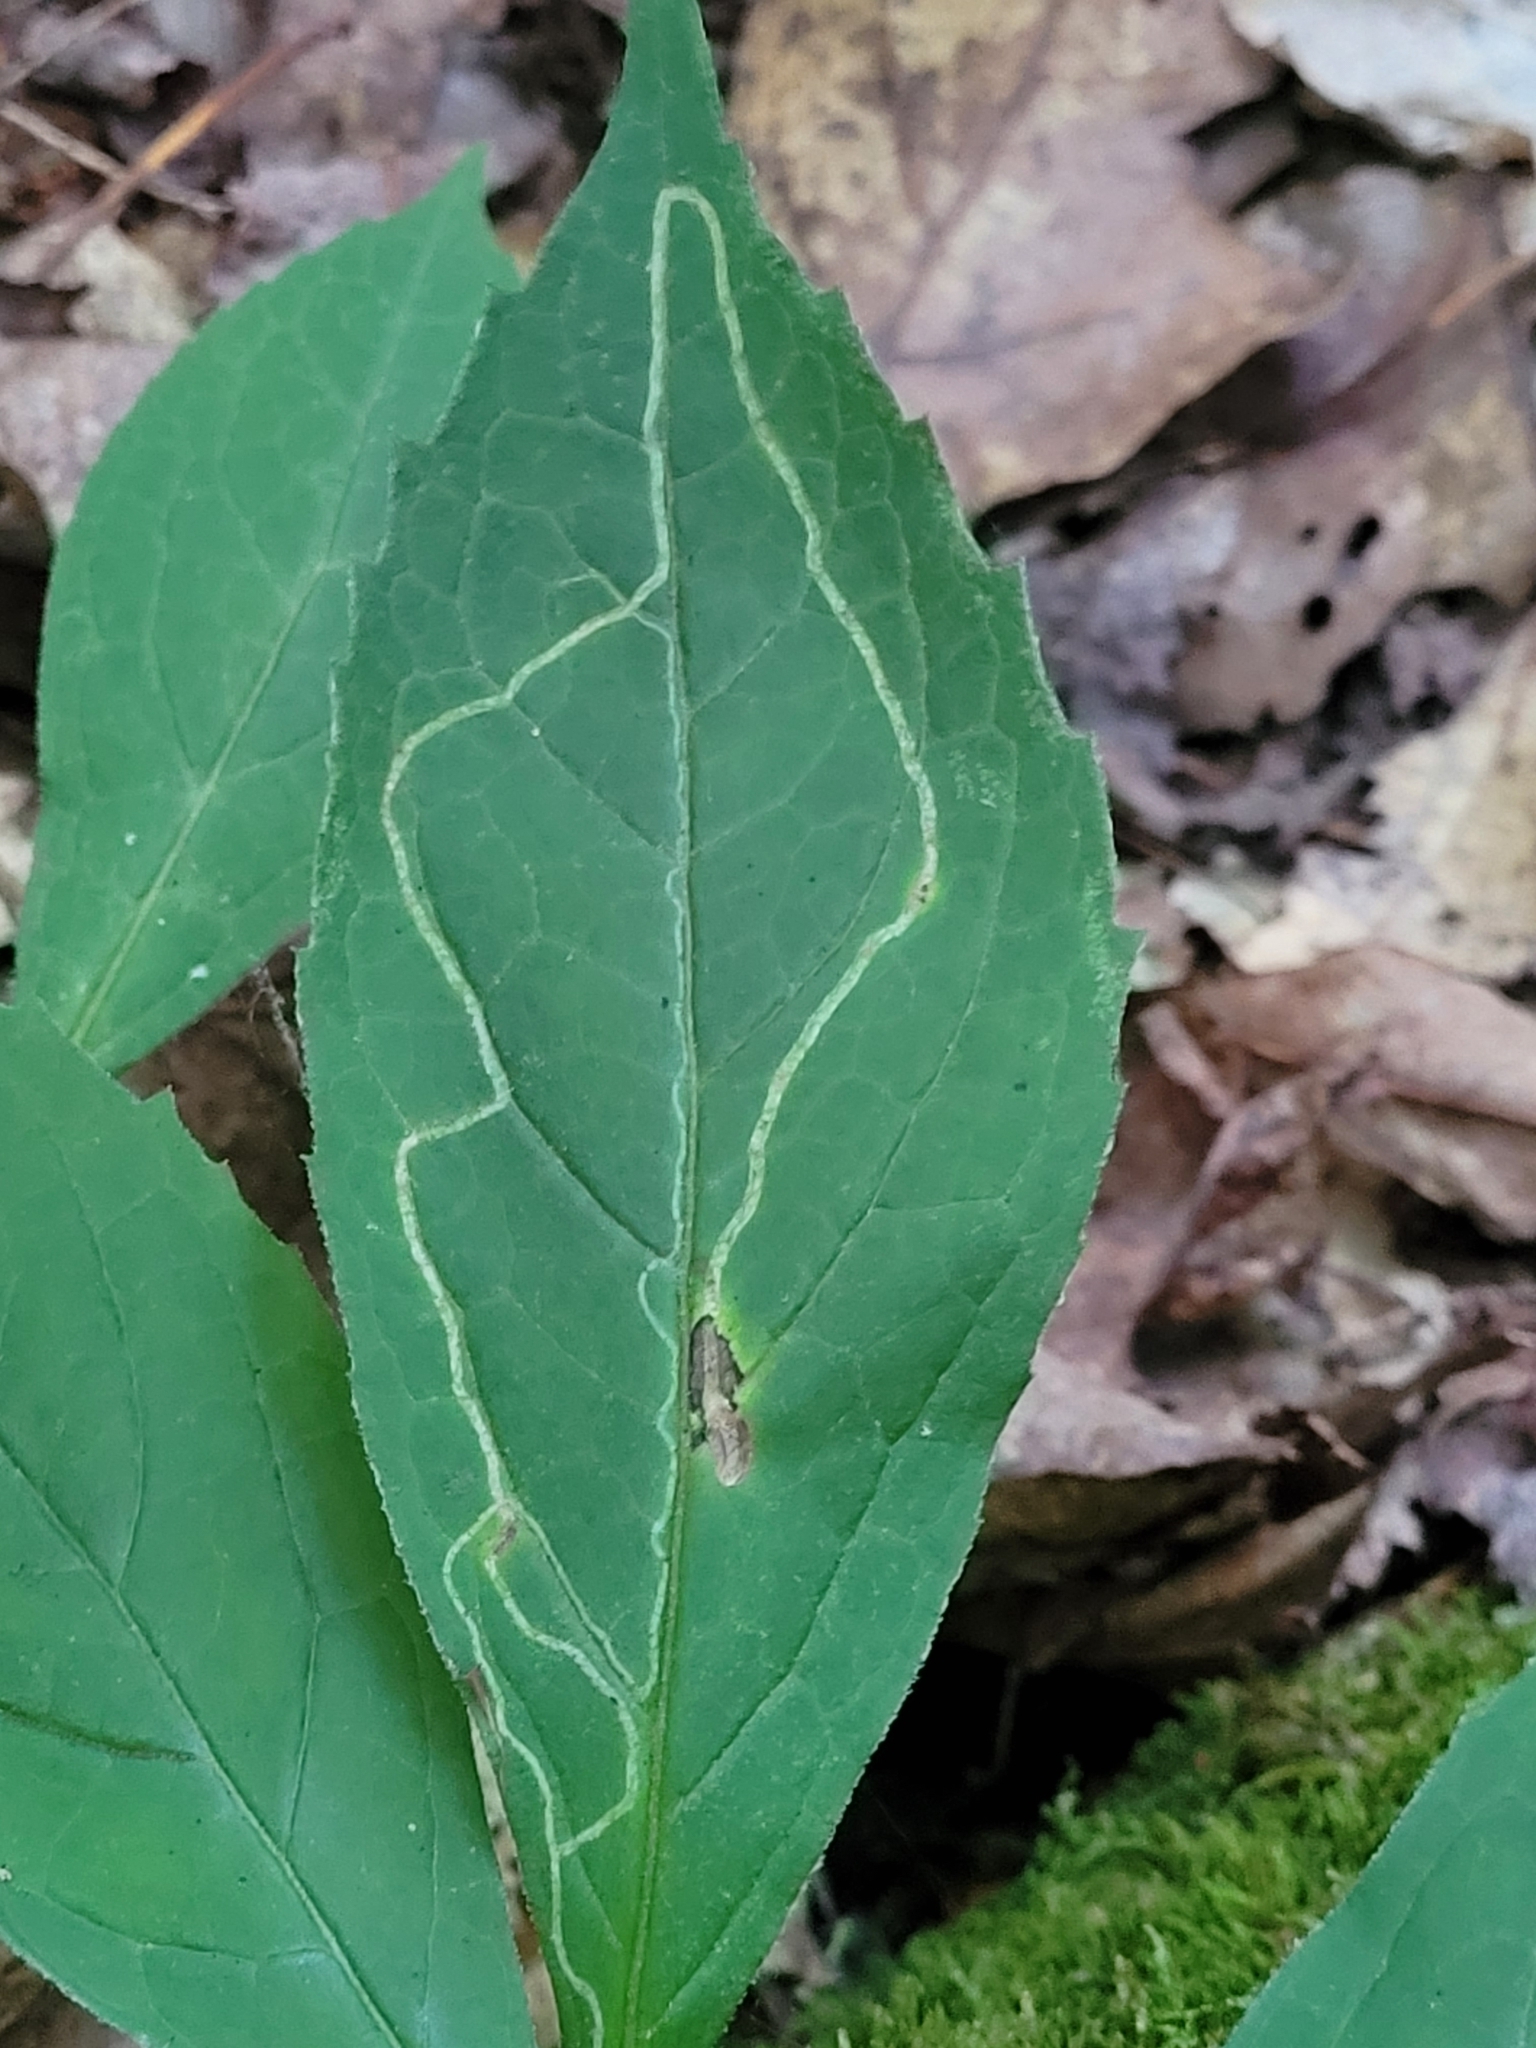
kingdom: Animalia
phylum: Arthropoda
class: Insecta
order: Diptera
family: Agromyzidae
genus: Ophiomyia
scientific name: Ophiomyia maura
